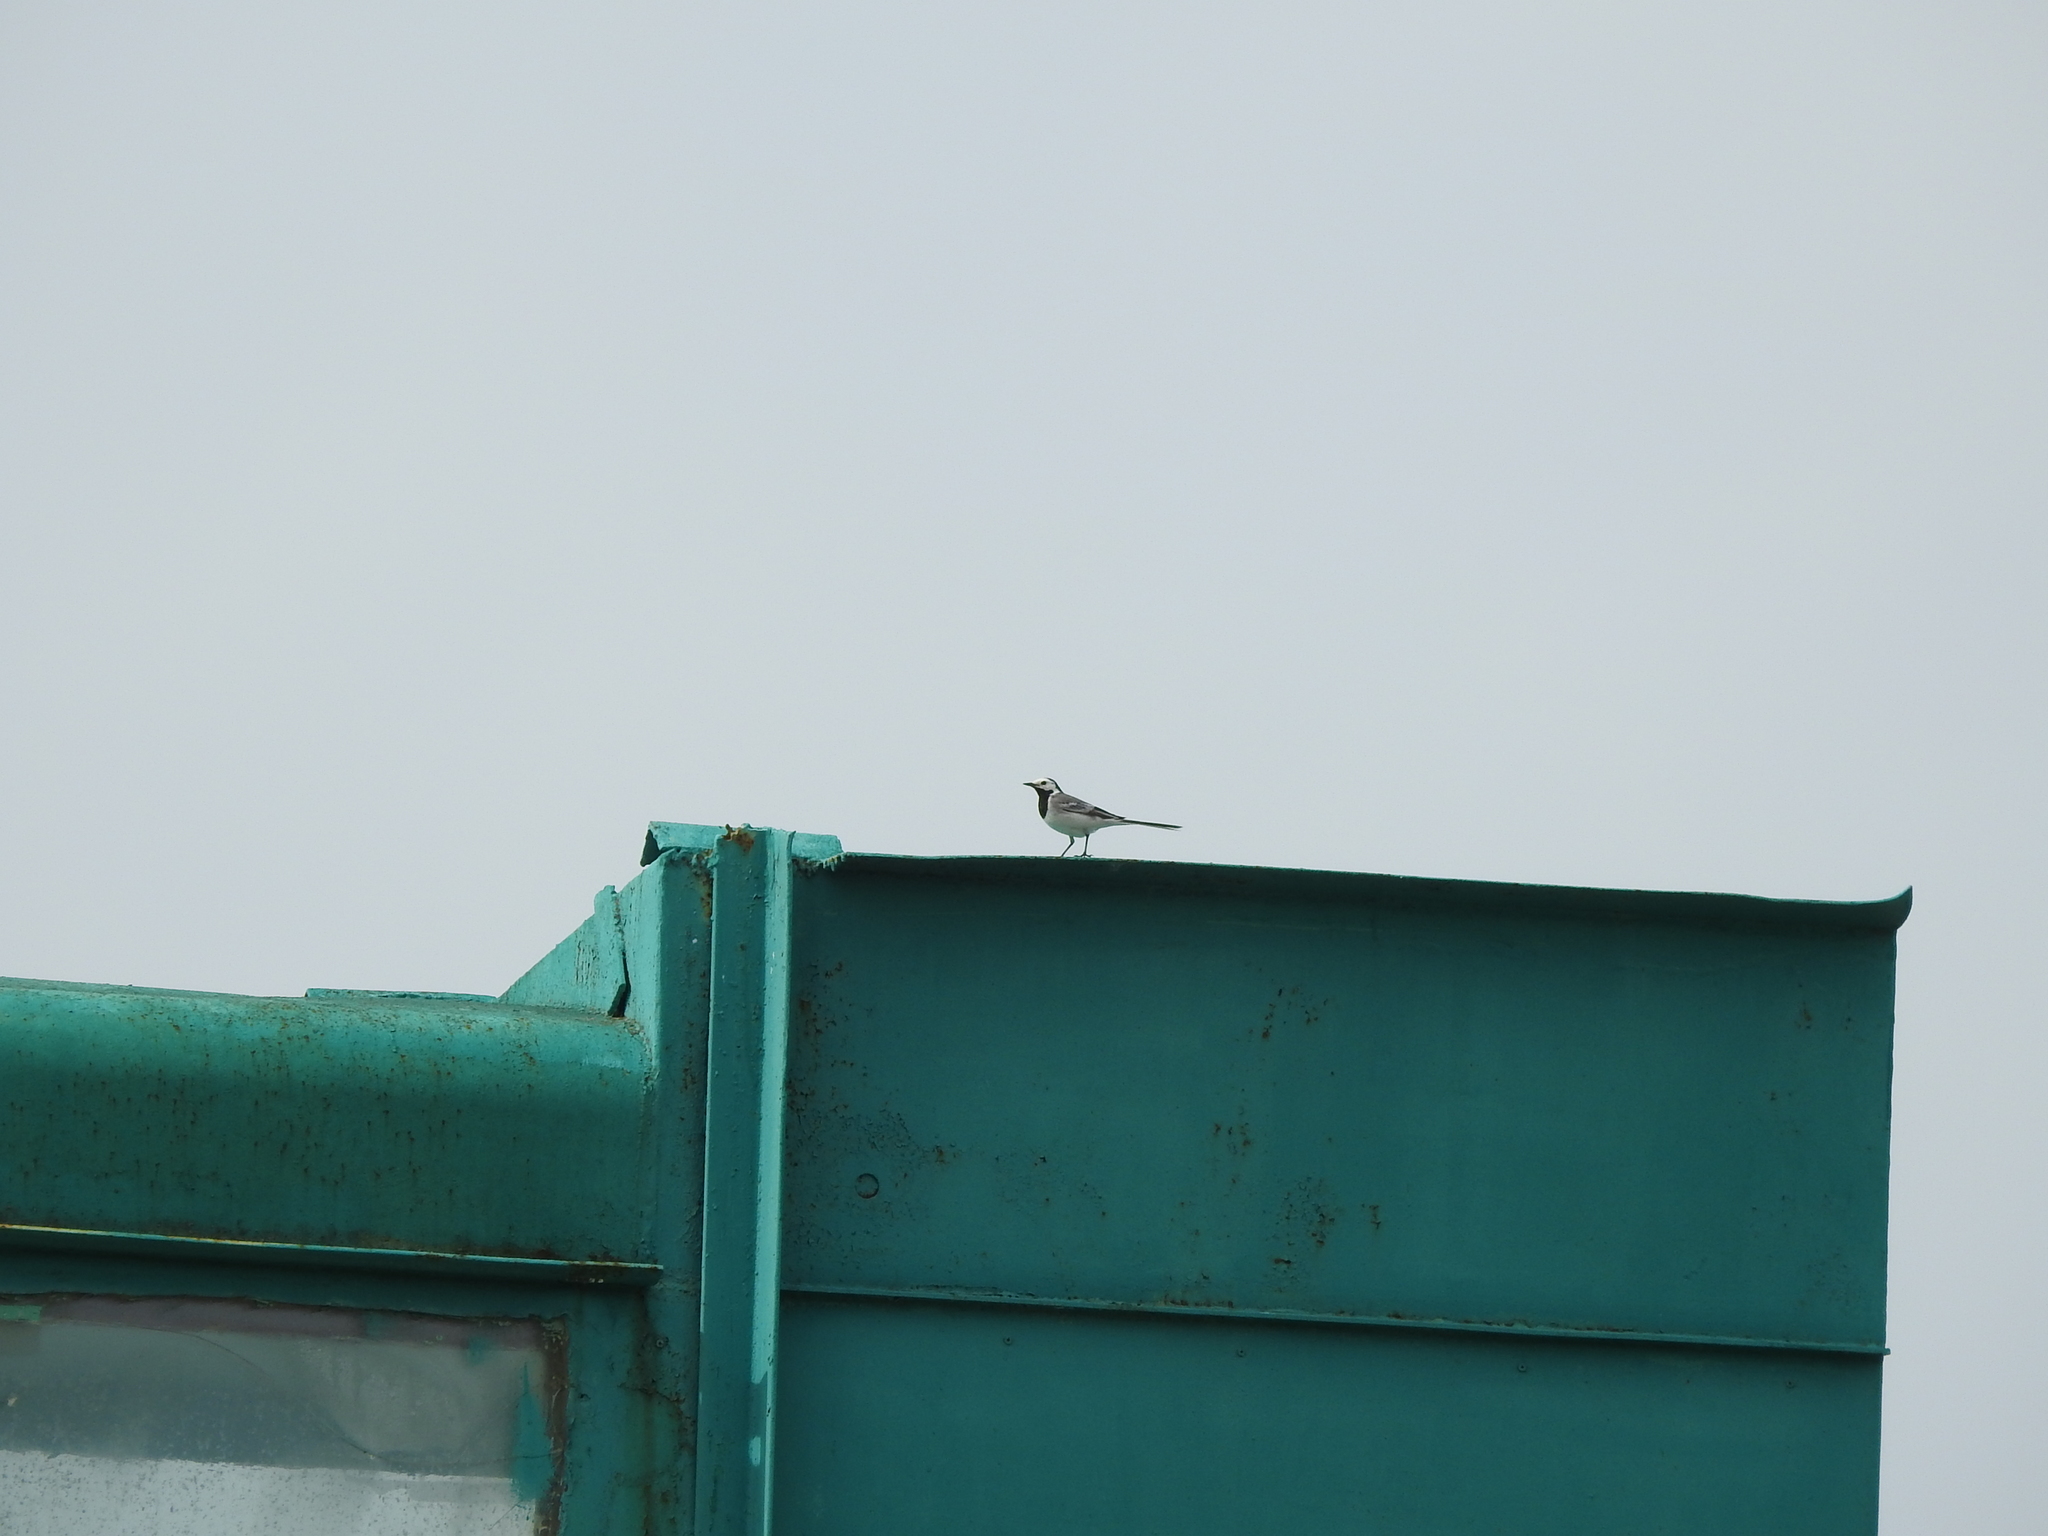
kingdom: Animalia
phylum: Chordata
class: Aves
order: Passeriformes
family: Motacillidae
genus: Motacilla
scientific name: Motacilla alba
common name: White wagtail
